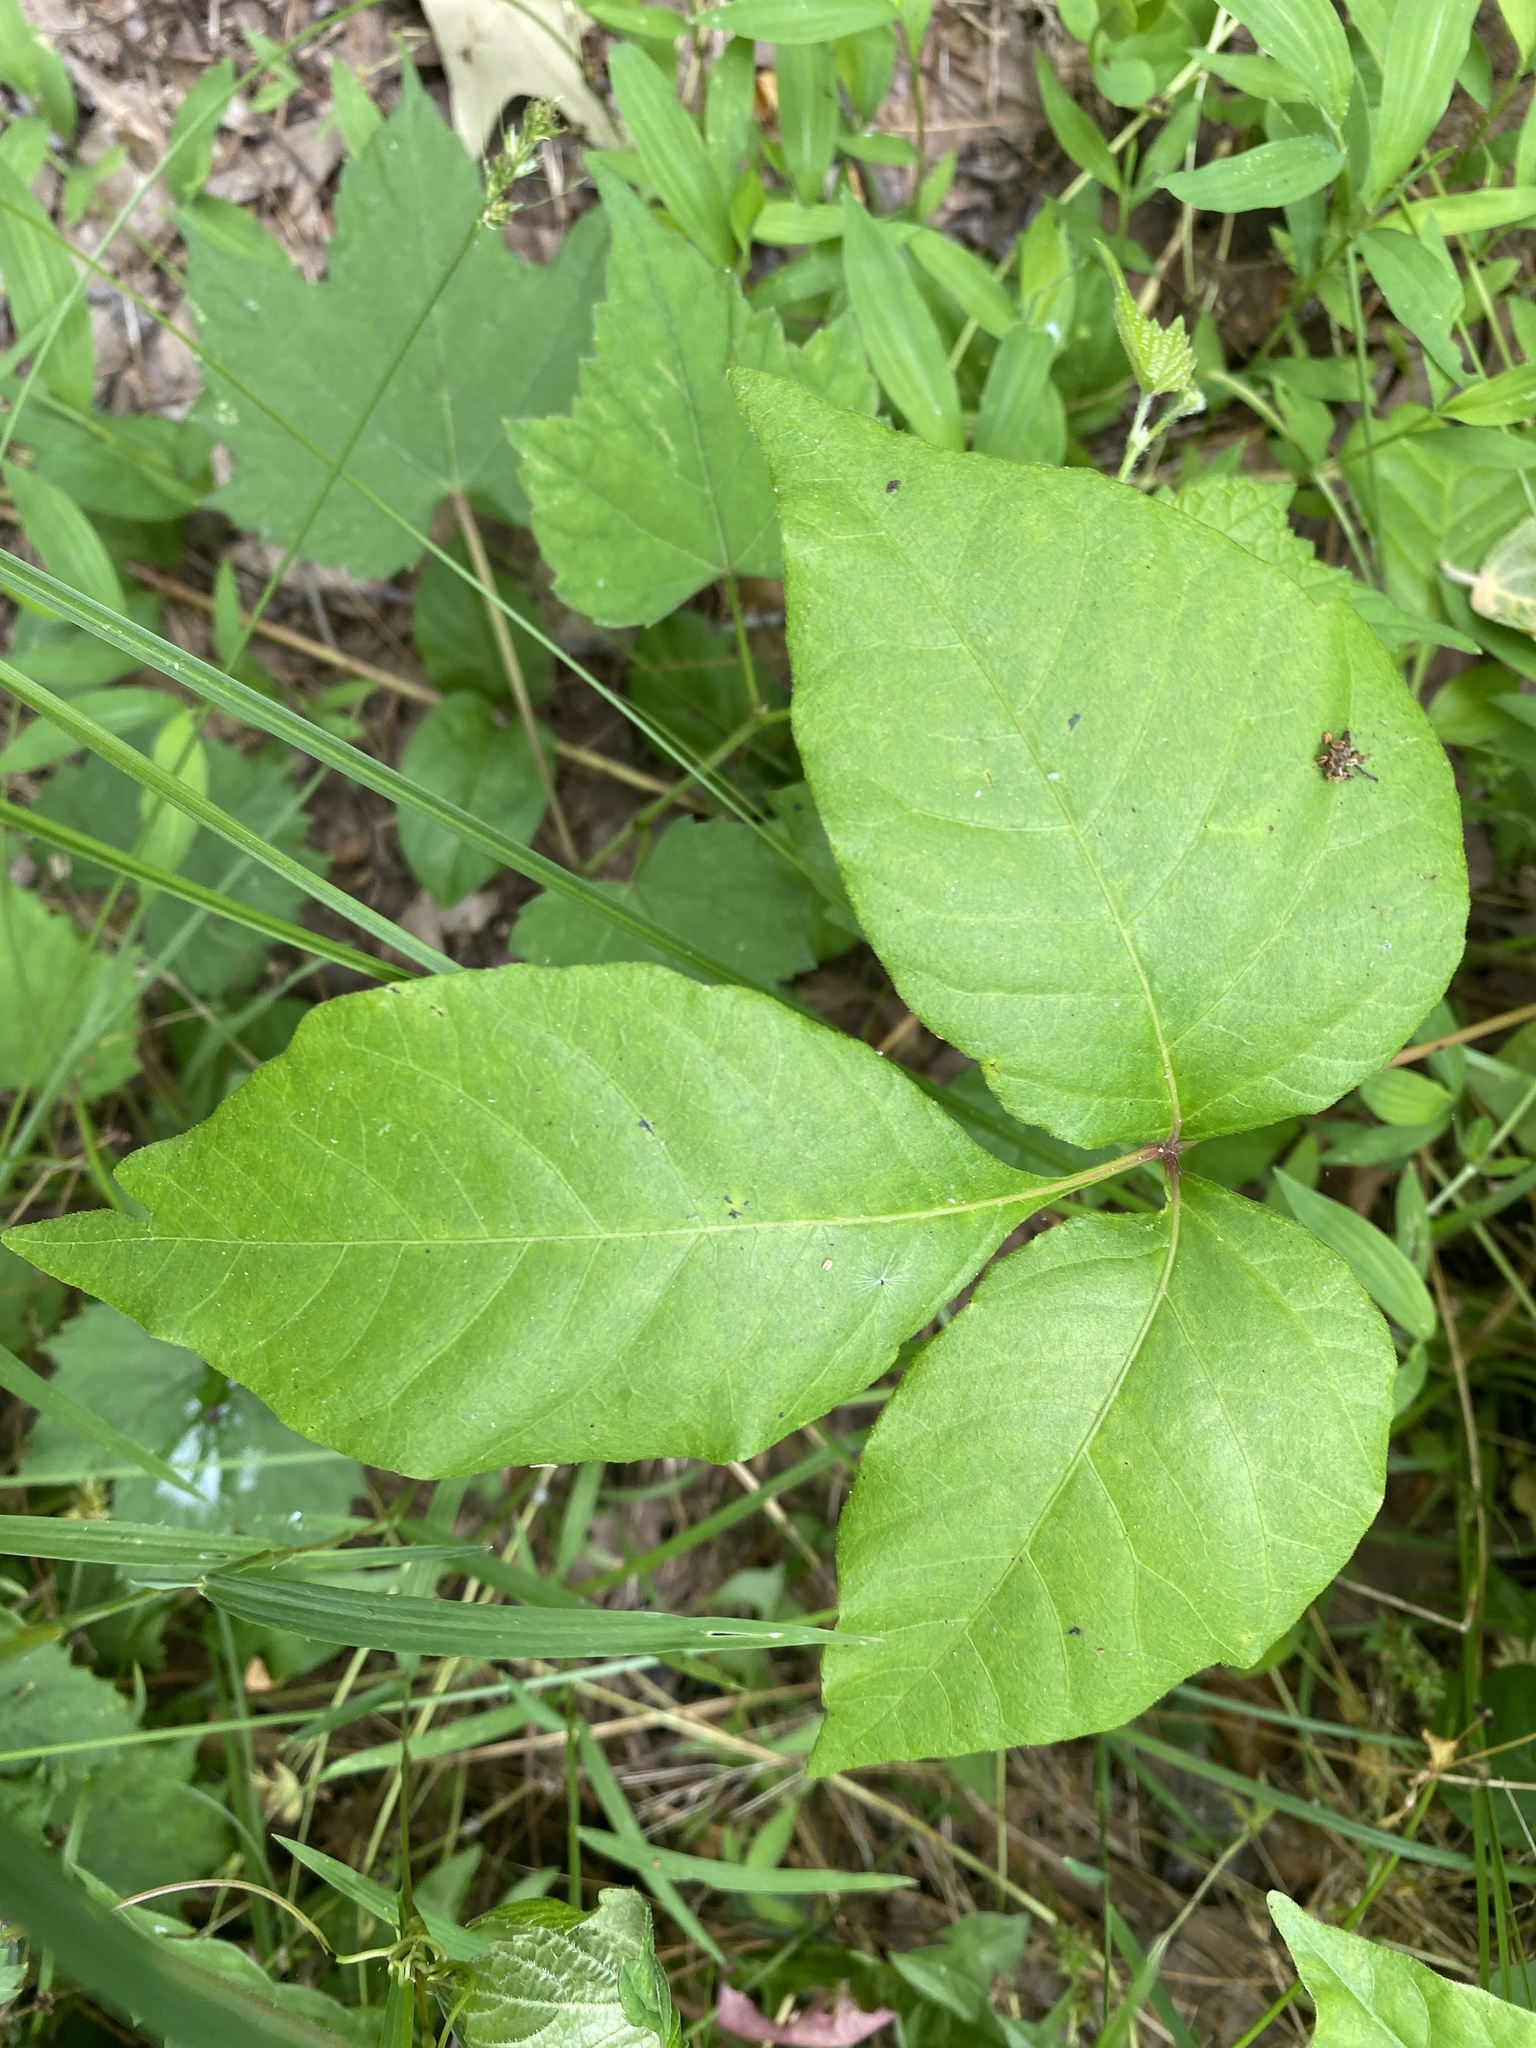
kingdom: Plantae
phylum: Tracheophyta
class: Magnoliopsida
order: Sapindales
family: Anacardiaceae
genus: Toxicodendron
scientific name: Toxicodendron radicans
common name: Poison ivy
